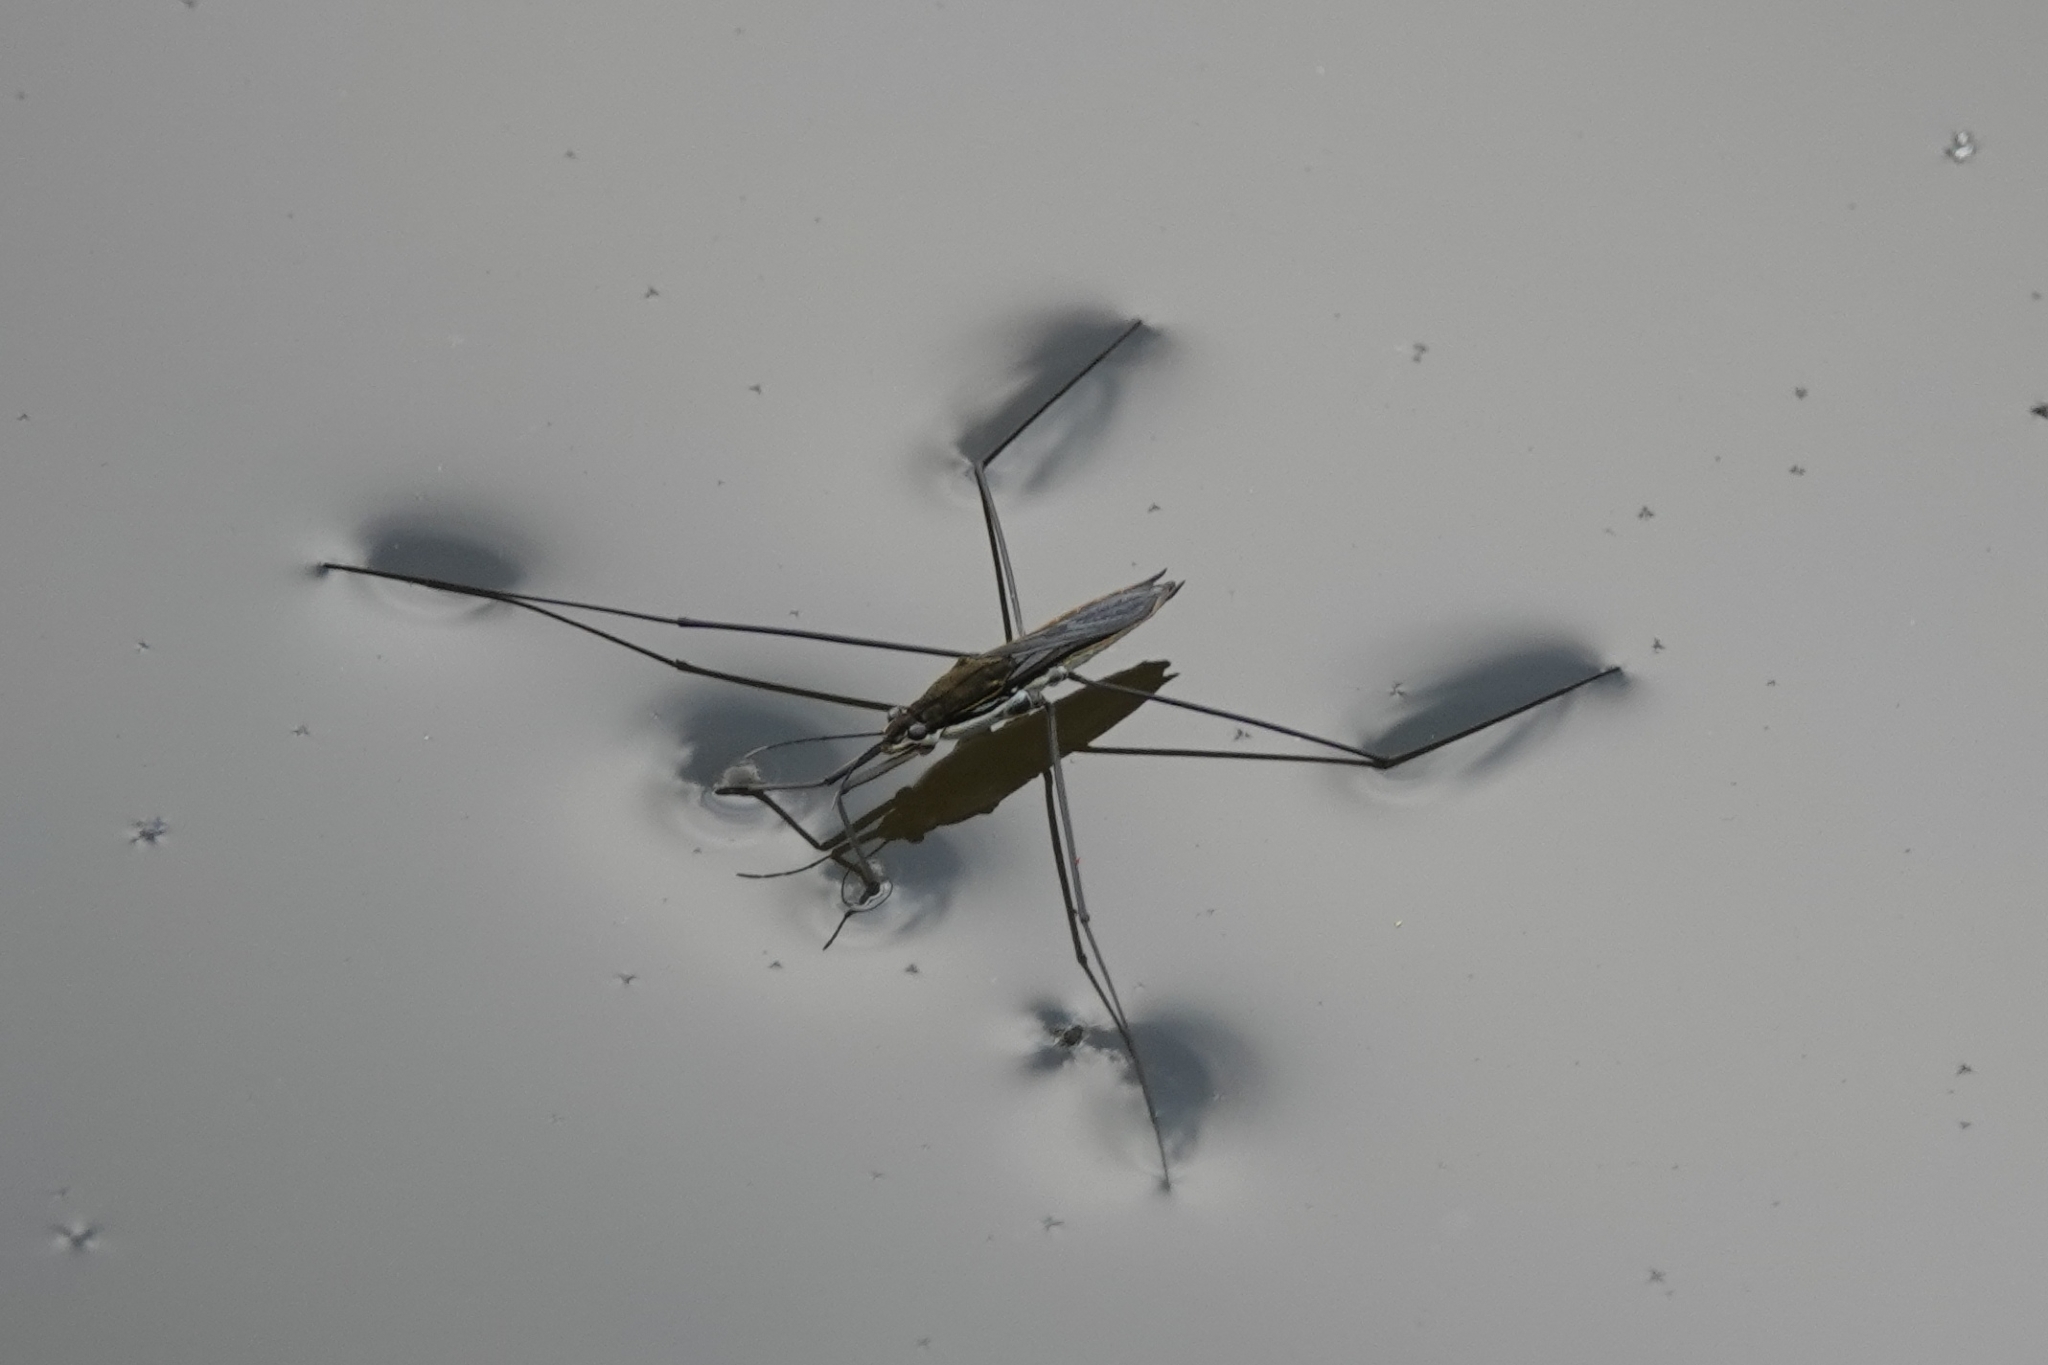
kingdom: Animalia
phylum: Arthropoda
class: Insecta
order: Hemiptera
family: Gerridae
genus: Aquarius
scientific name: Aquarius paludum
